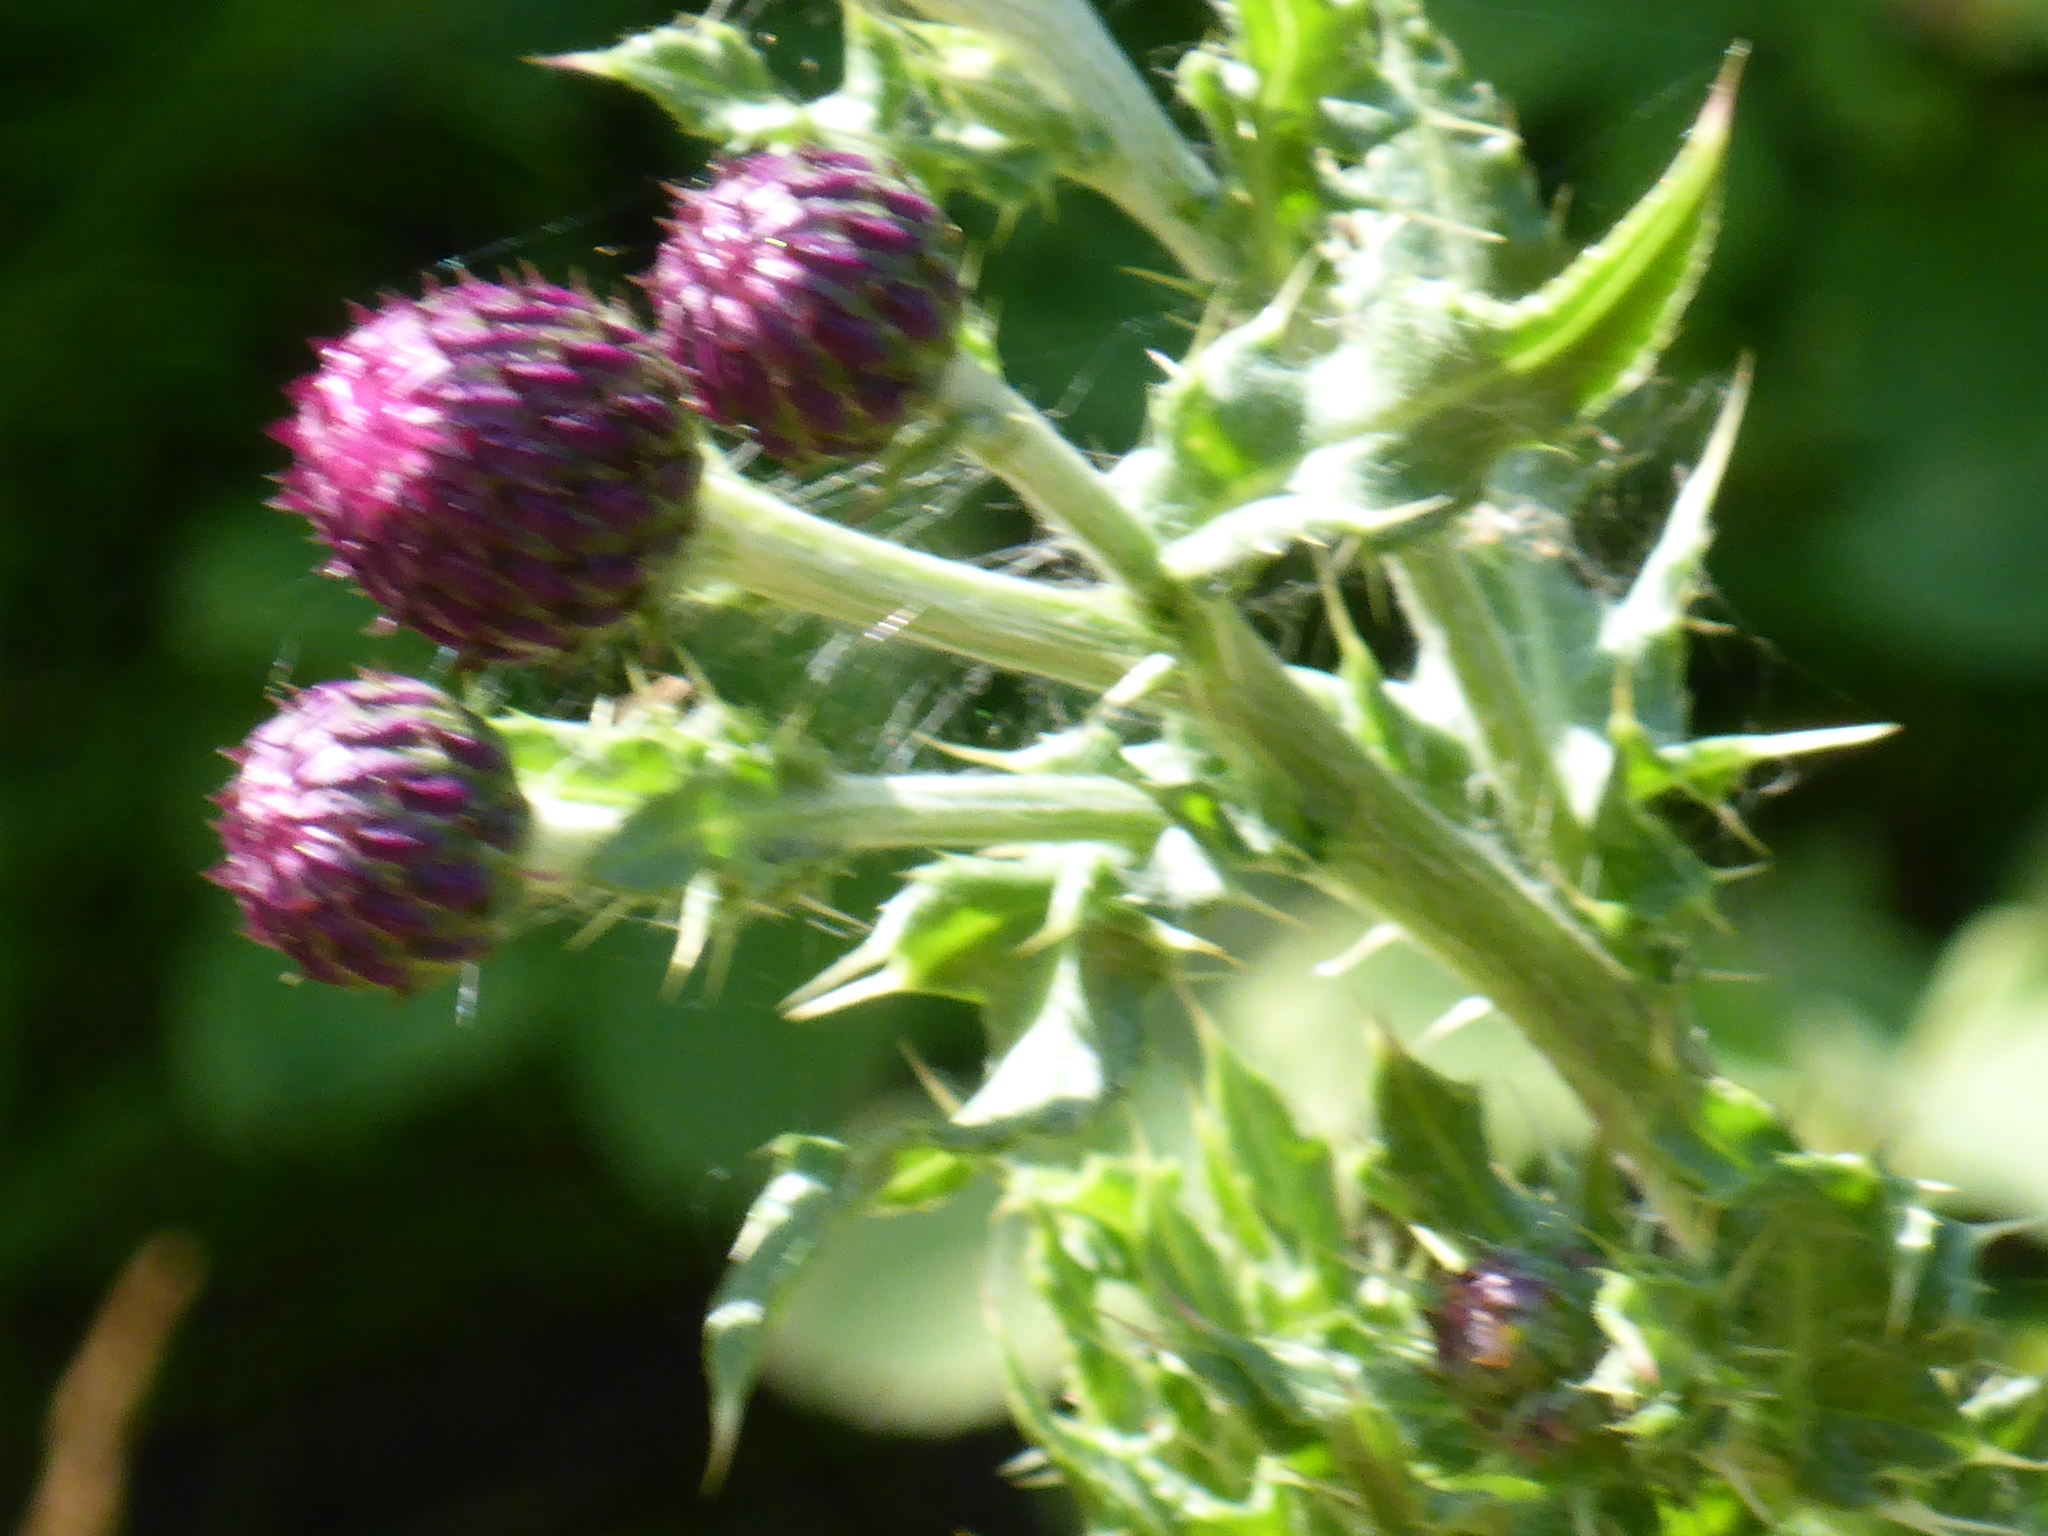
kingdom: Plantae
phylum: Tracheophyta
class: Magnoliopsida
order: Asterales
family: Asteraceae
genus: Cirsium
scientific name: Cirsium arvense
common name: Creeping thistle
